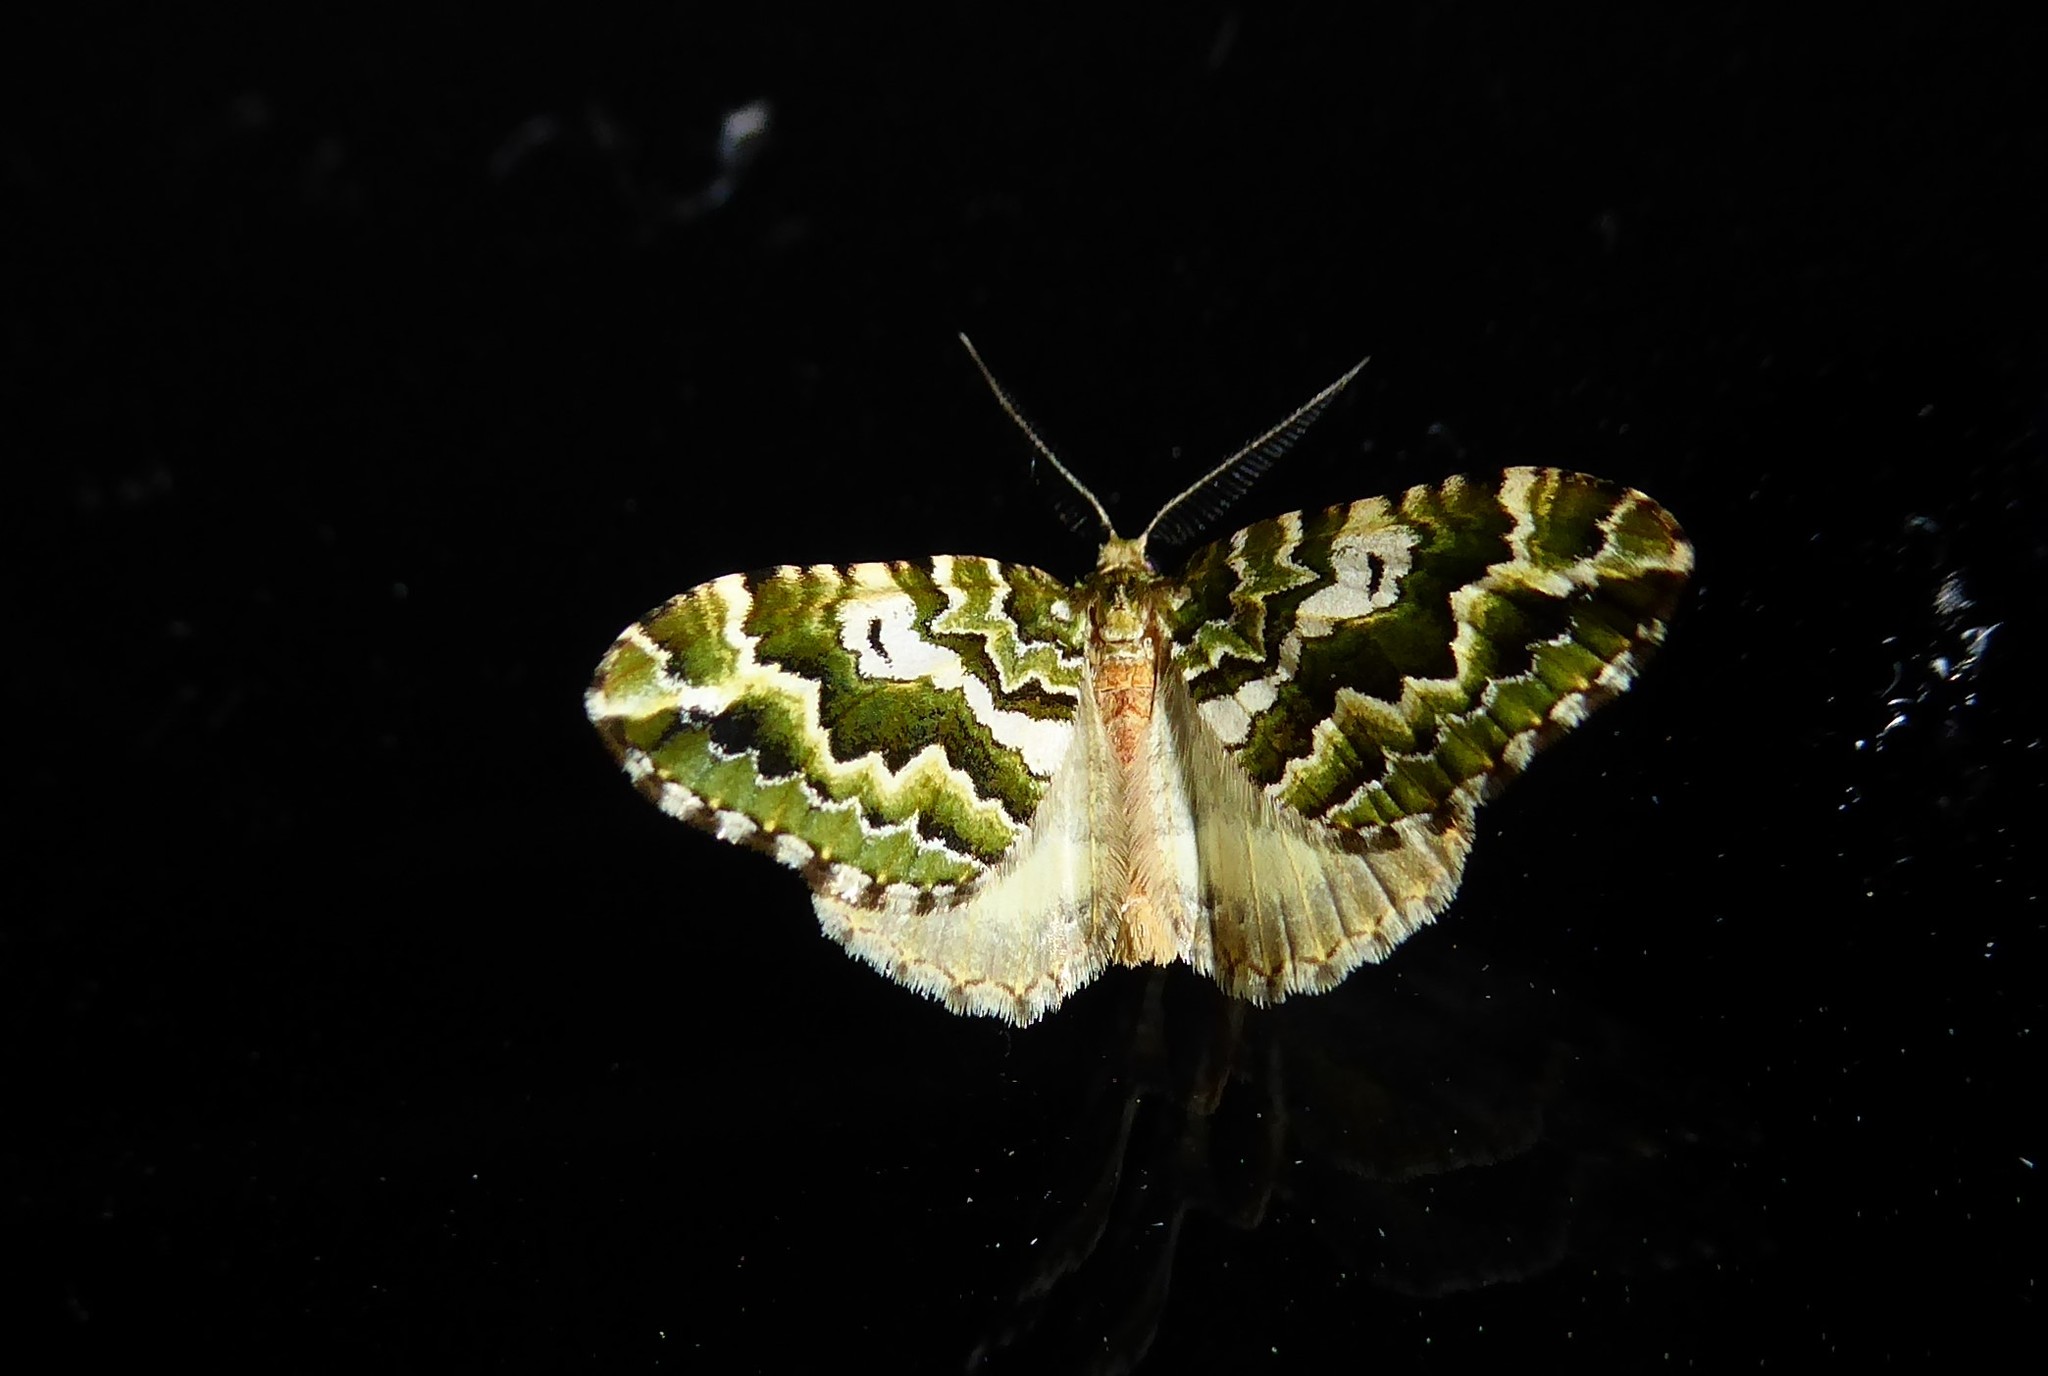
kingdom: Animalia
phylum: Arthropoda
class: Insecta
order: Lepidoptera
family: Geometridae
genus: Asaphodes
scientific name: Asaphodes beata
